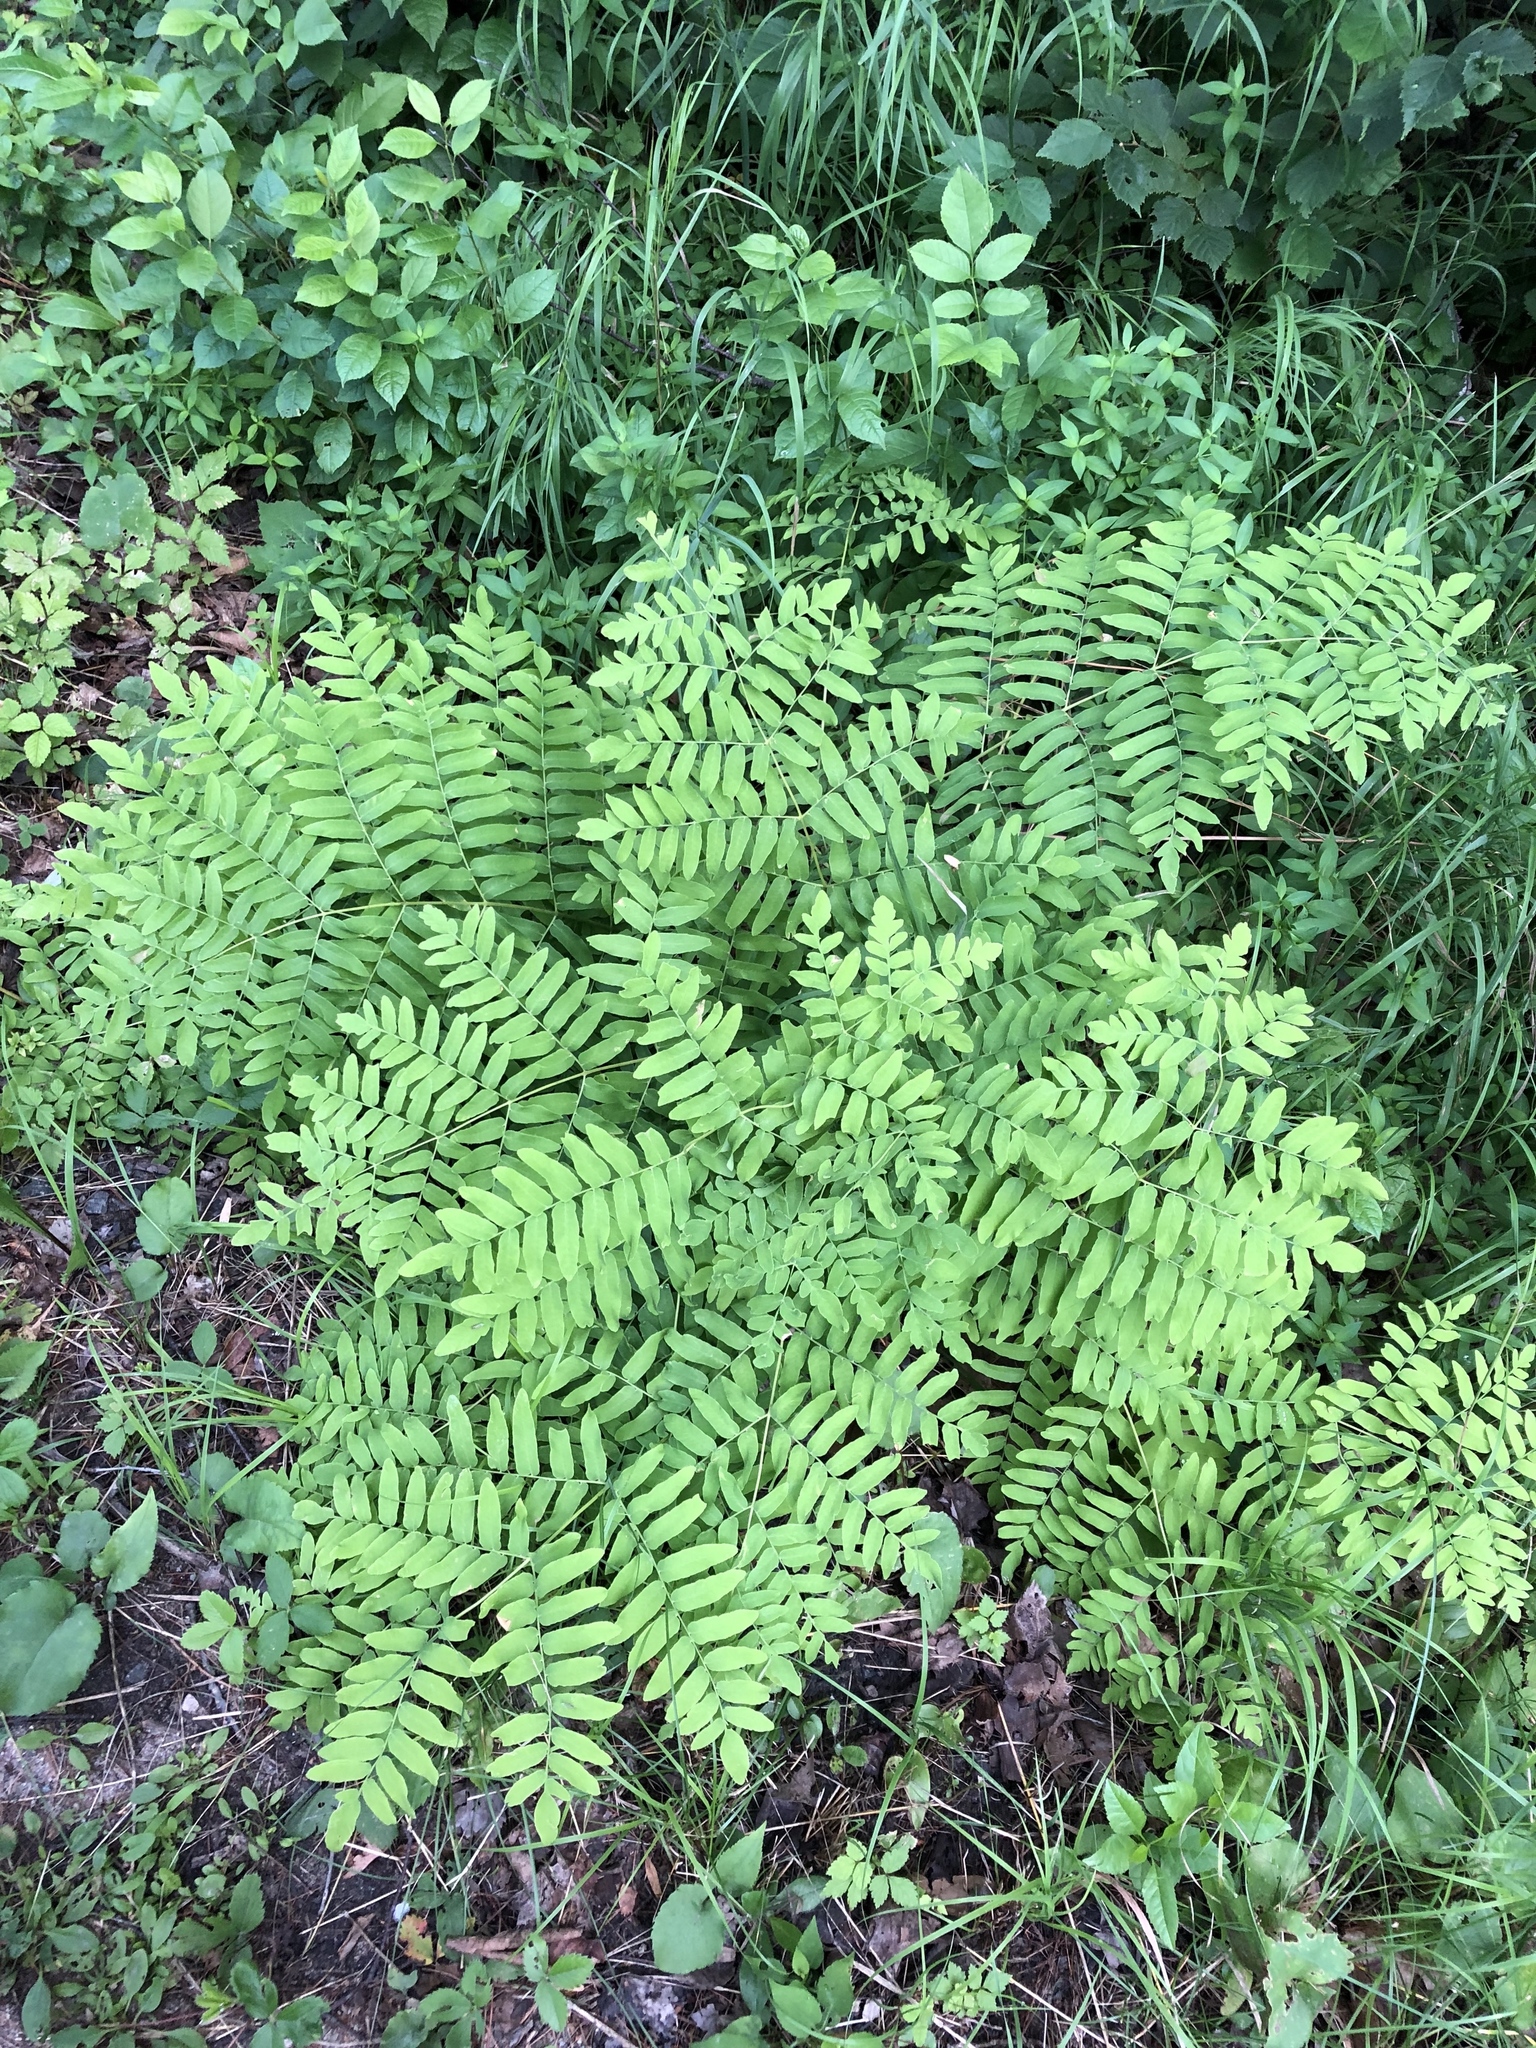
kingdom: Plantae
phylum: Tracheophyta
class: Polypodiopsida
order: Osmundales
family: Osmundaceae
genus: Osmunda
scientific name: Osmunda spectabilis
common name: American royal fern
